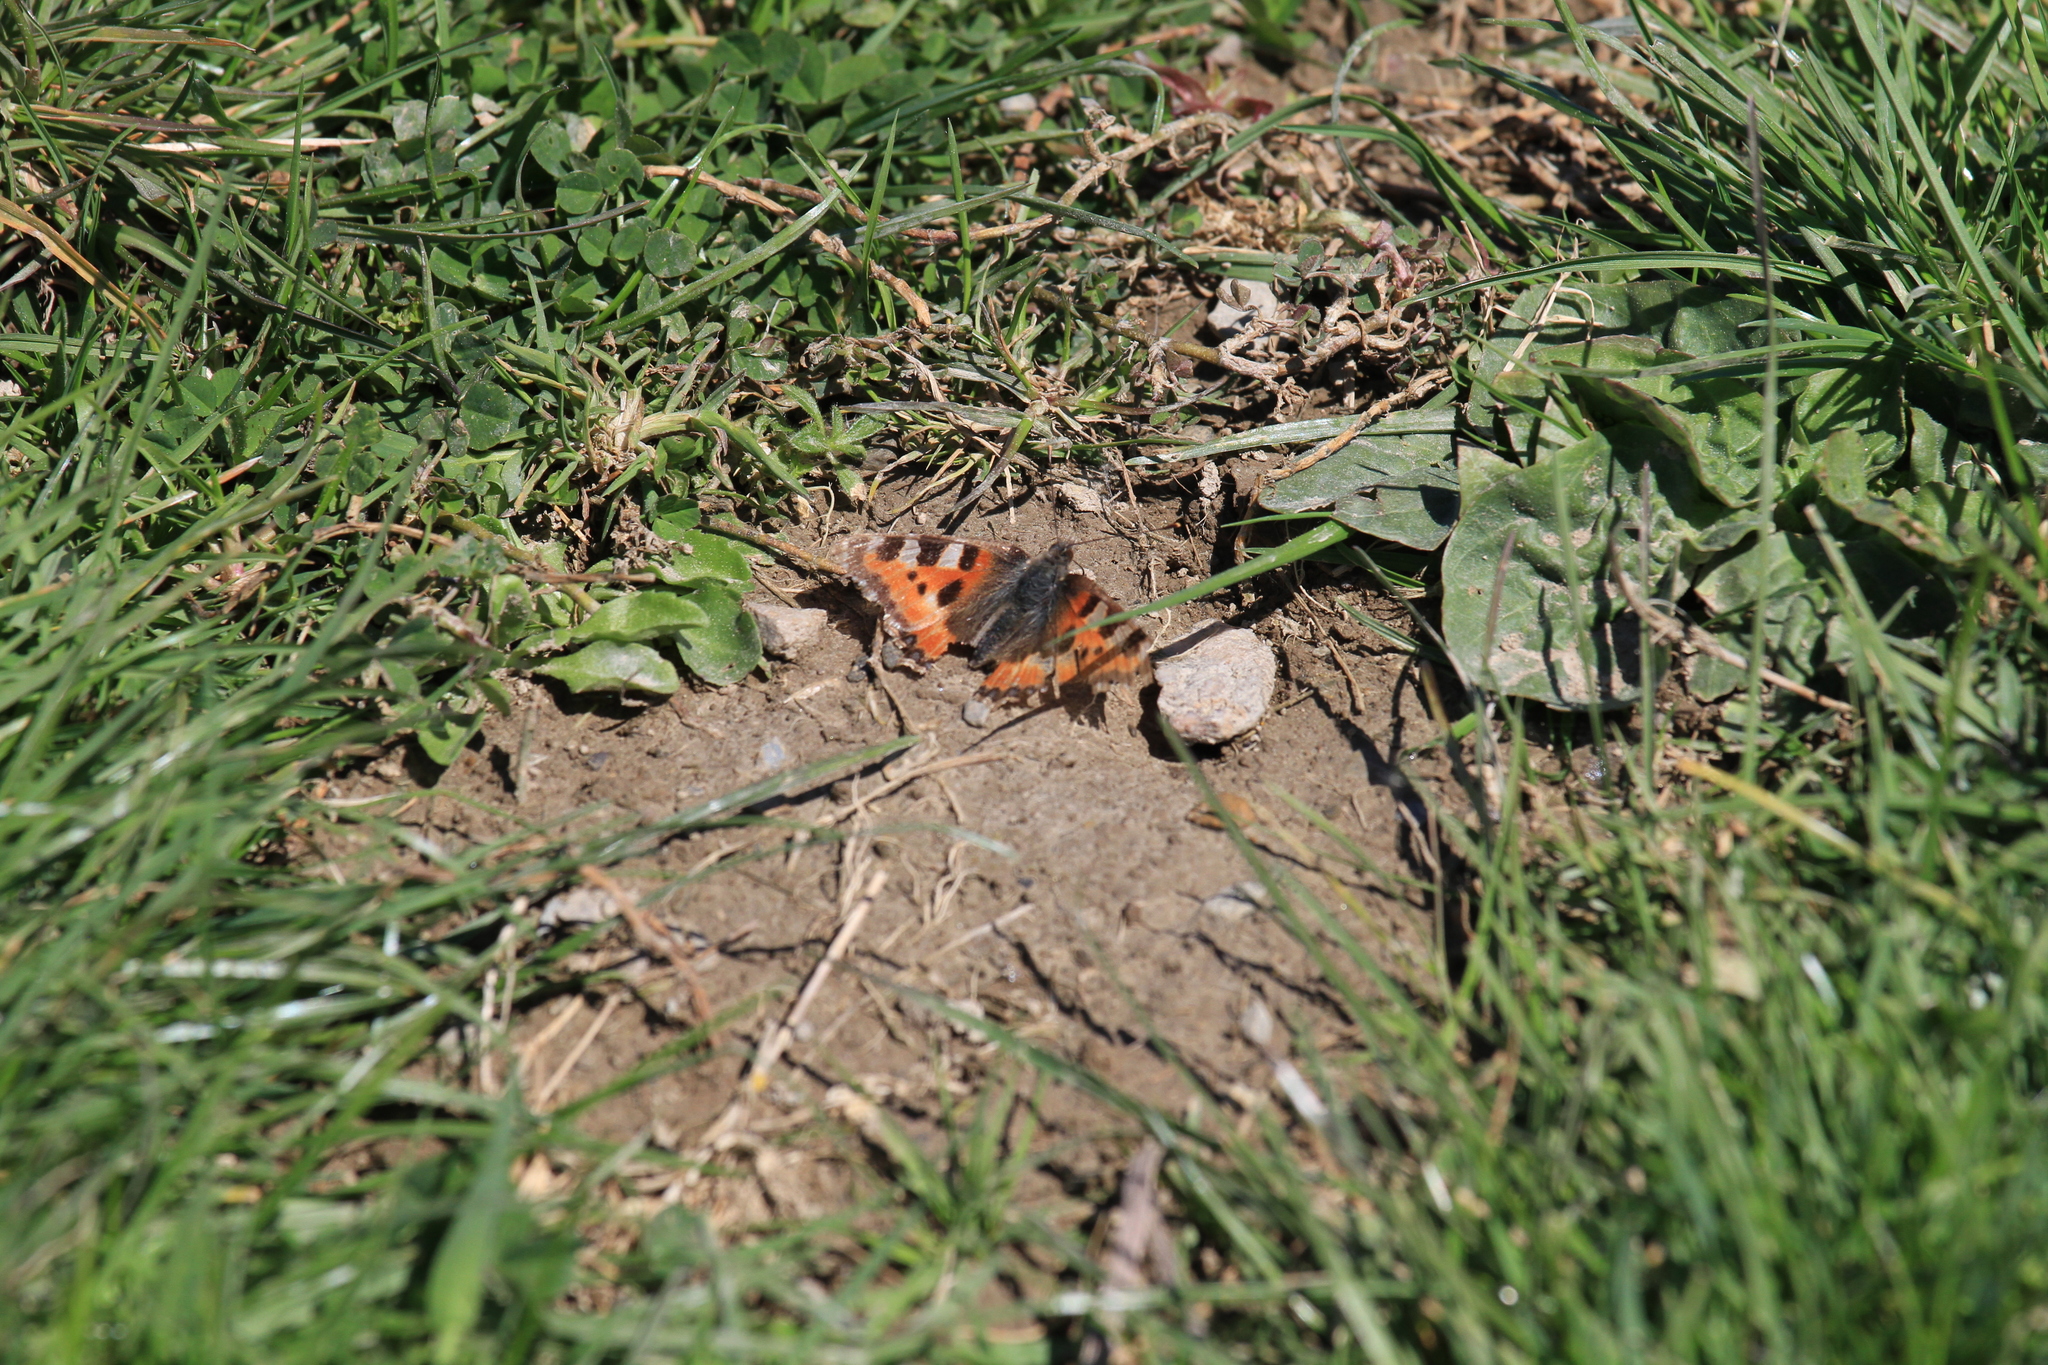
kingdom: Animalia
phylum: Arthropoda
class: Insecta
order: Lepidoptera
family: Nymphalidae
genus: Aglais
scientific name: Aglais urticae
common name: Small tortoiseshell
